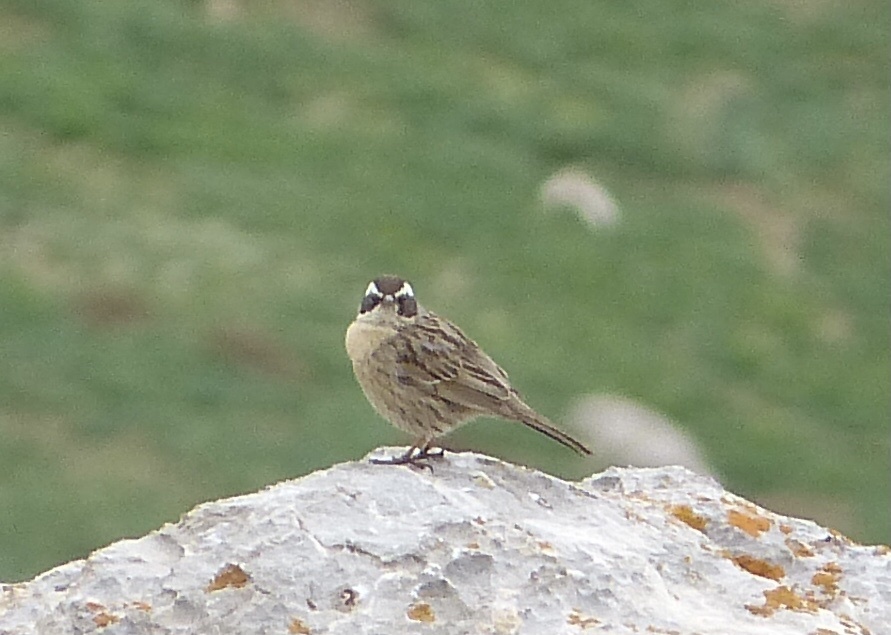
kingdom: Animalia
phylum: Chordata
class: Aves
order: Passeriformes
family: Prunellidae
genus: Prunella
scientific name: Prunella ocularis
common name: Radde's accentor
